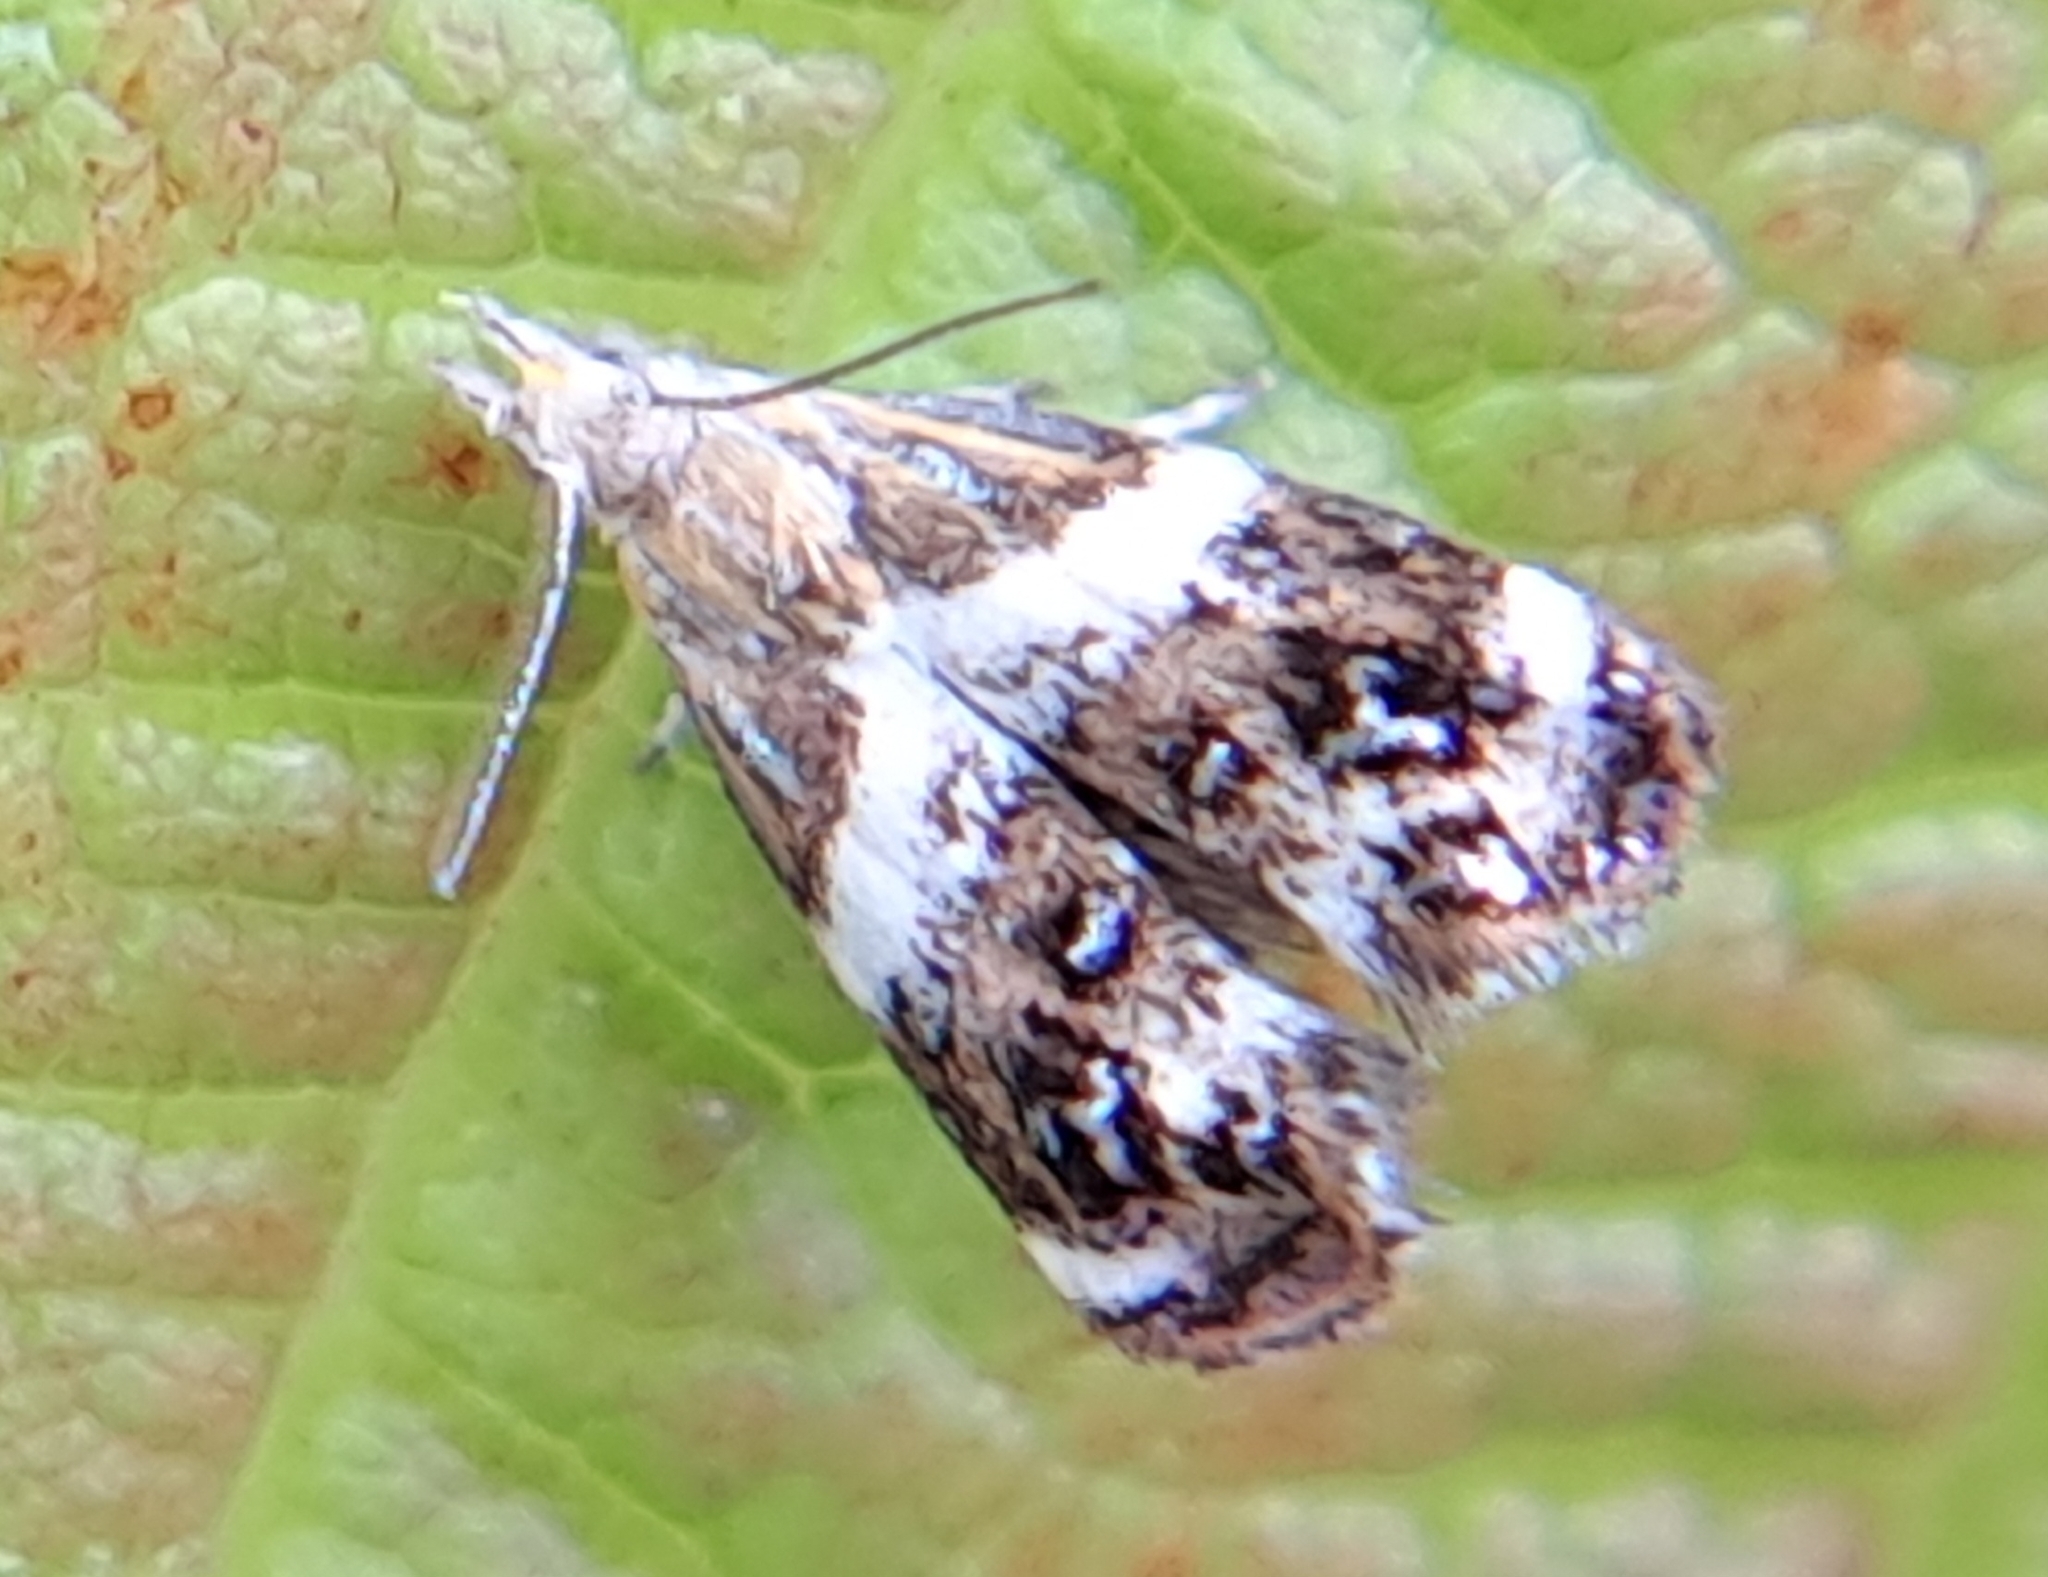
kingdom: Animalia
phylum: Arthropoda
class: Insecta
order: Lepidoptera
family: Choreutidae
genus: Tebenna
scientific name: Tebenna onustana
